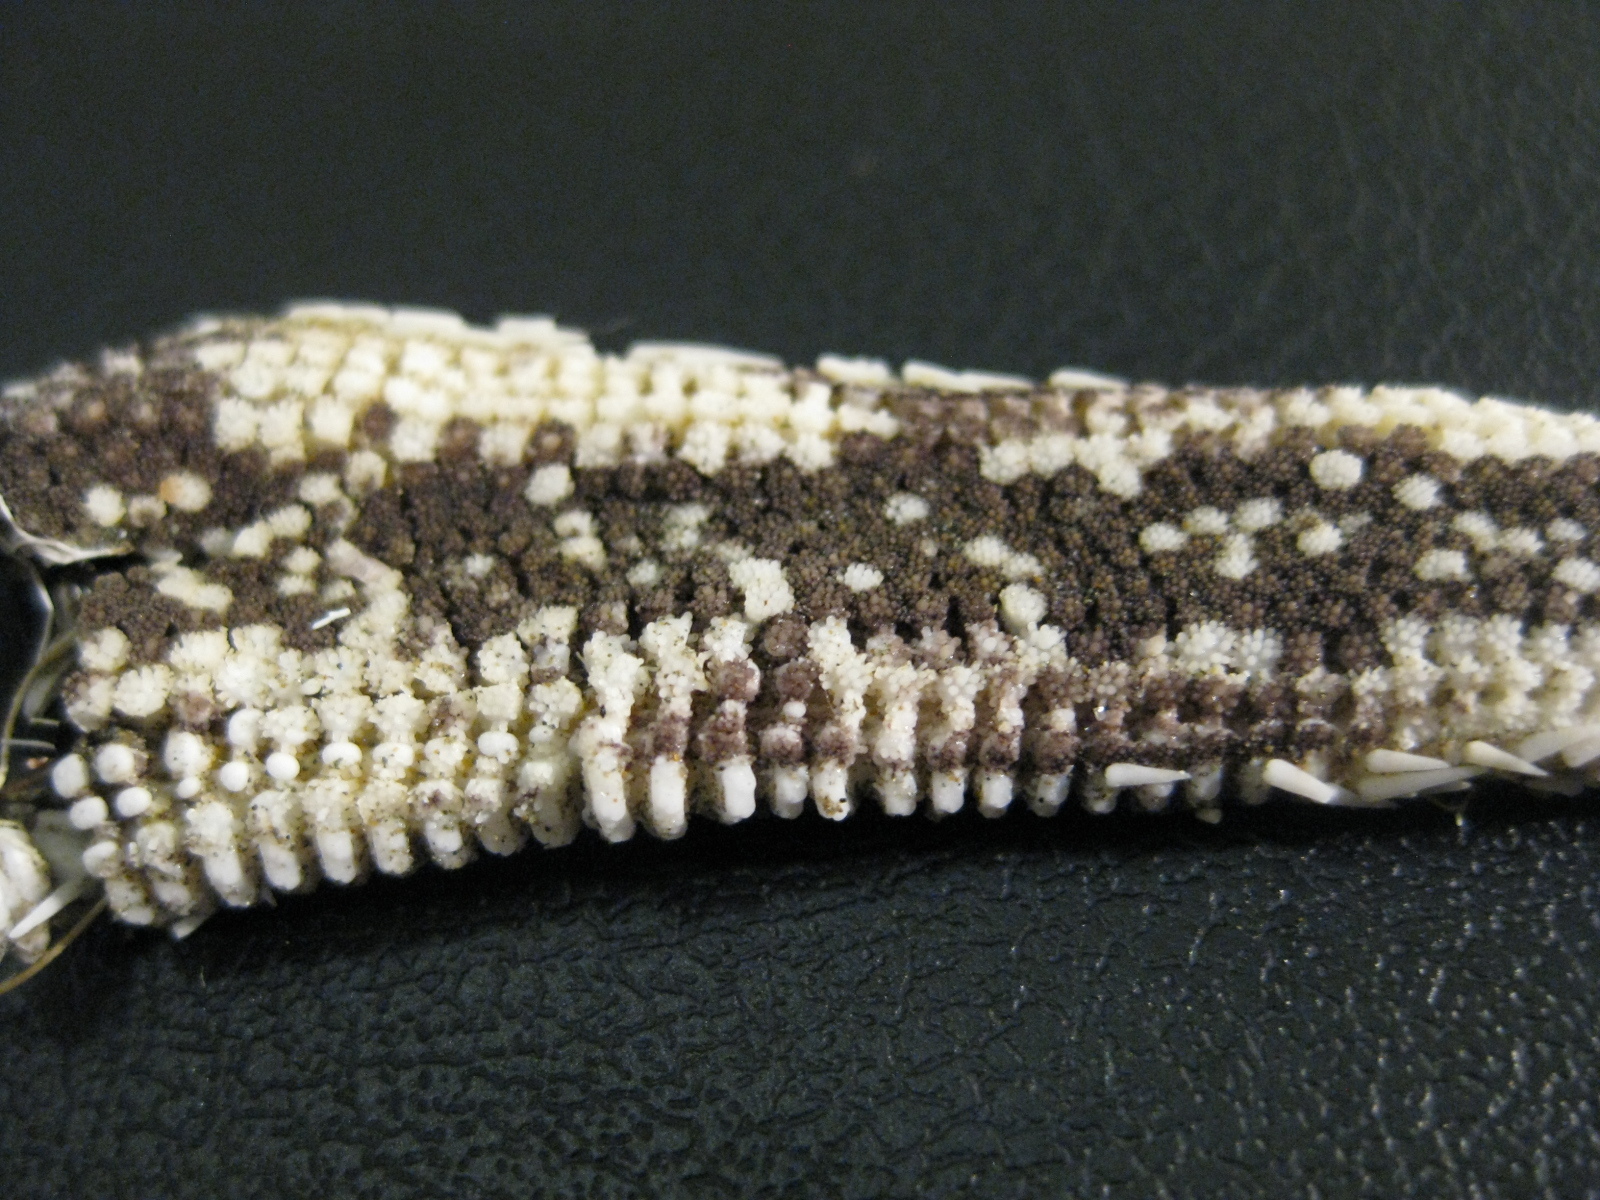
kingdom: Animalia
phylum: Echinodermata
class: Asteroidea
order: Paxillosida
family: Luidiidae
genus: Luidia
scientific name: Luidia australiae
